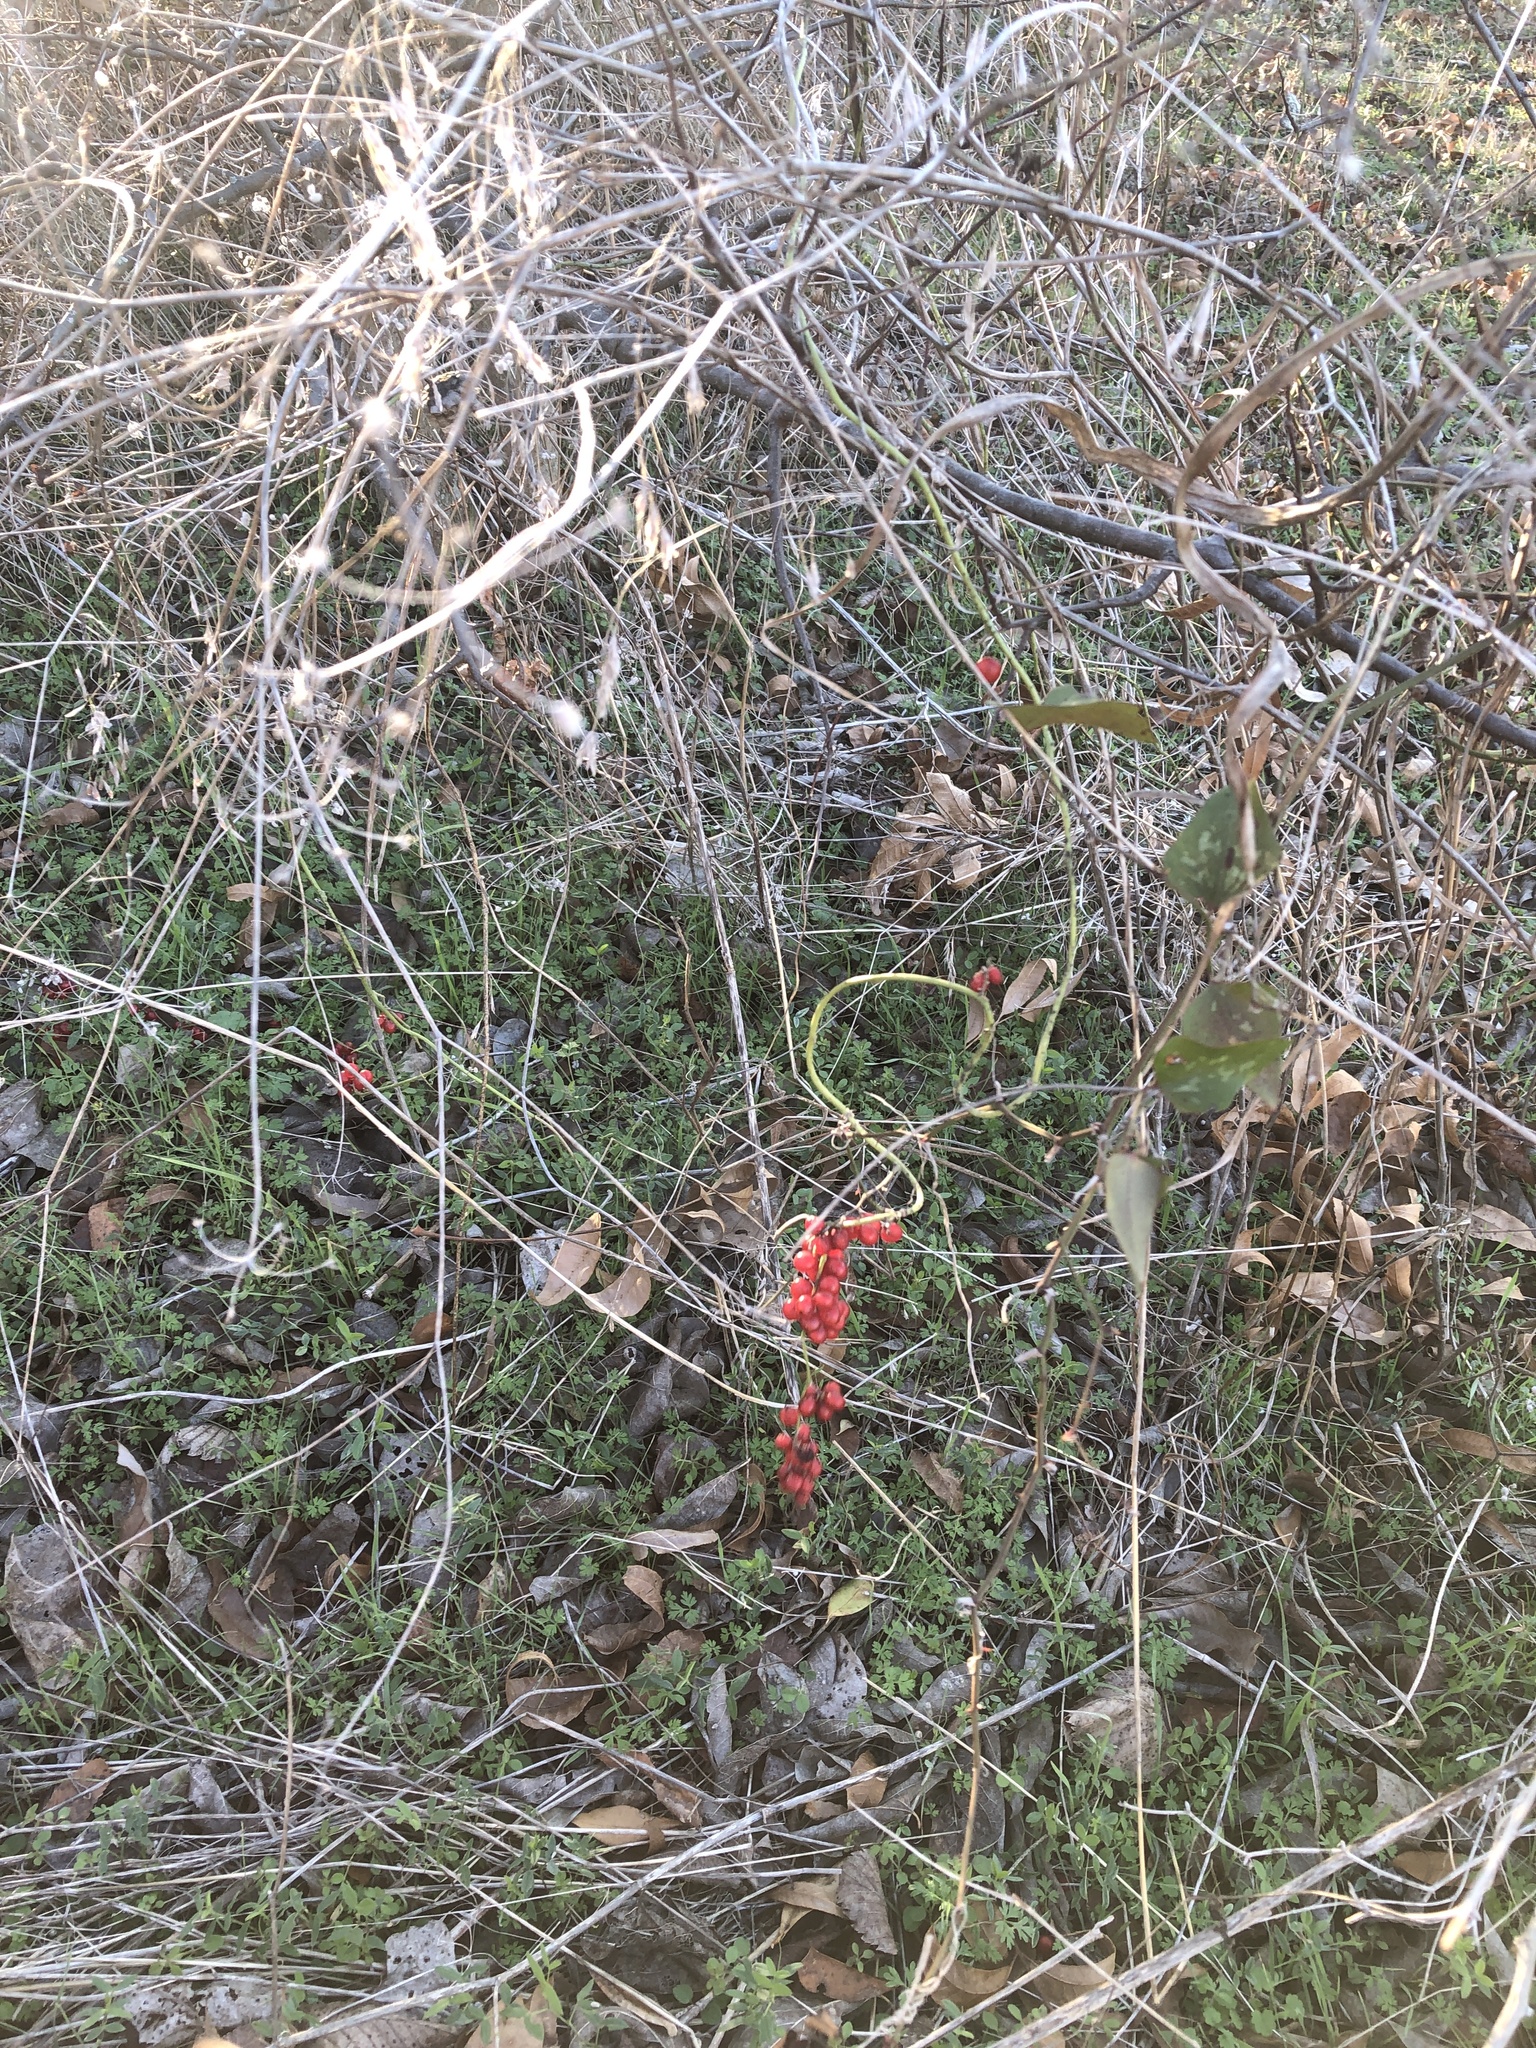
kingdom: Plantae
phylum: Tracheophyta
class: Magnoliopsida
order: Ranunculales
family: Menispermaceae
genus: Cocculus
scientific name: Cocculus carolinus
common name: Carolina moonseed
